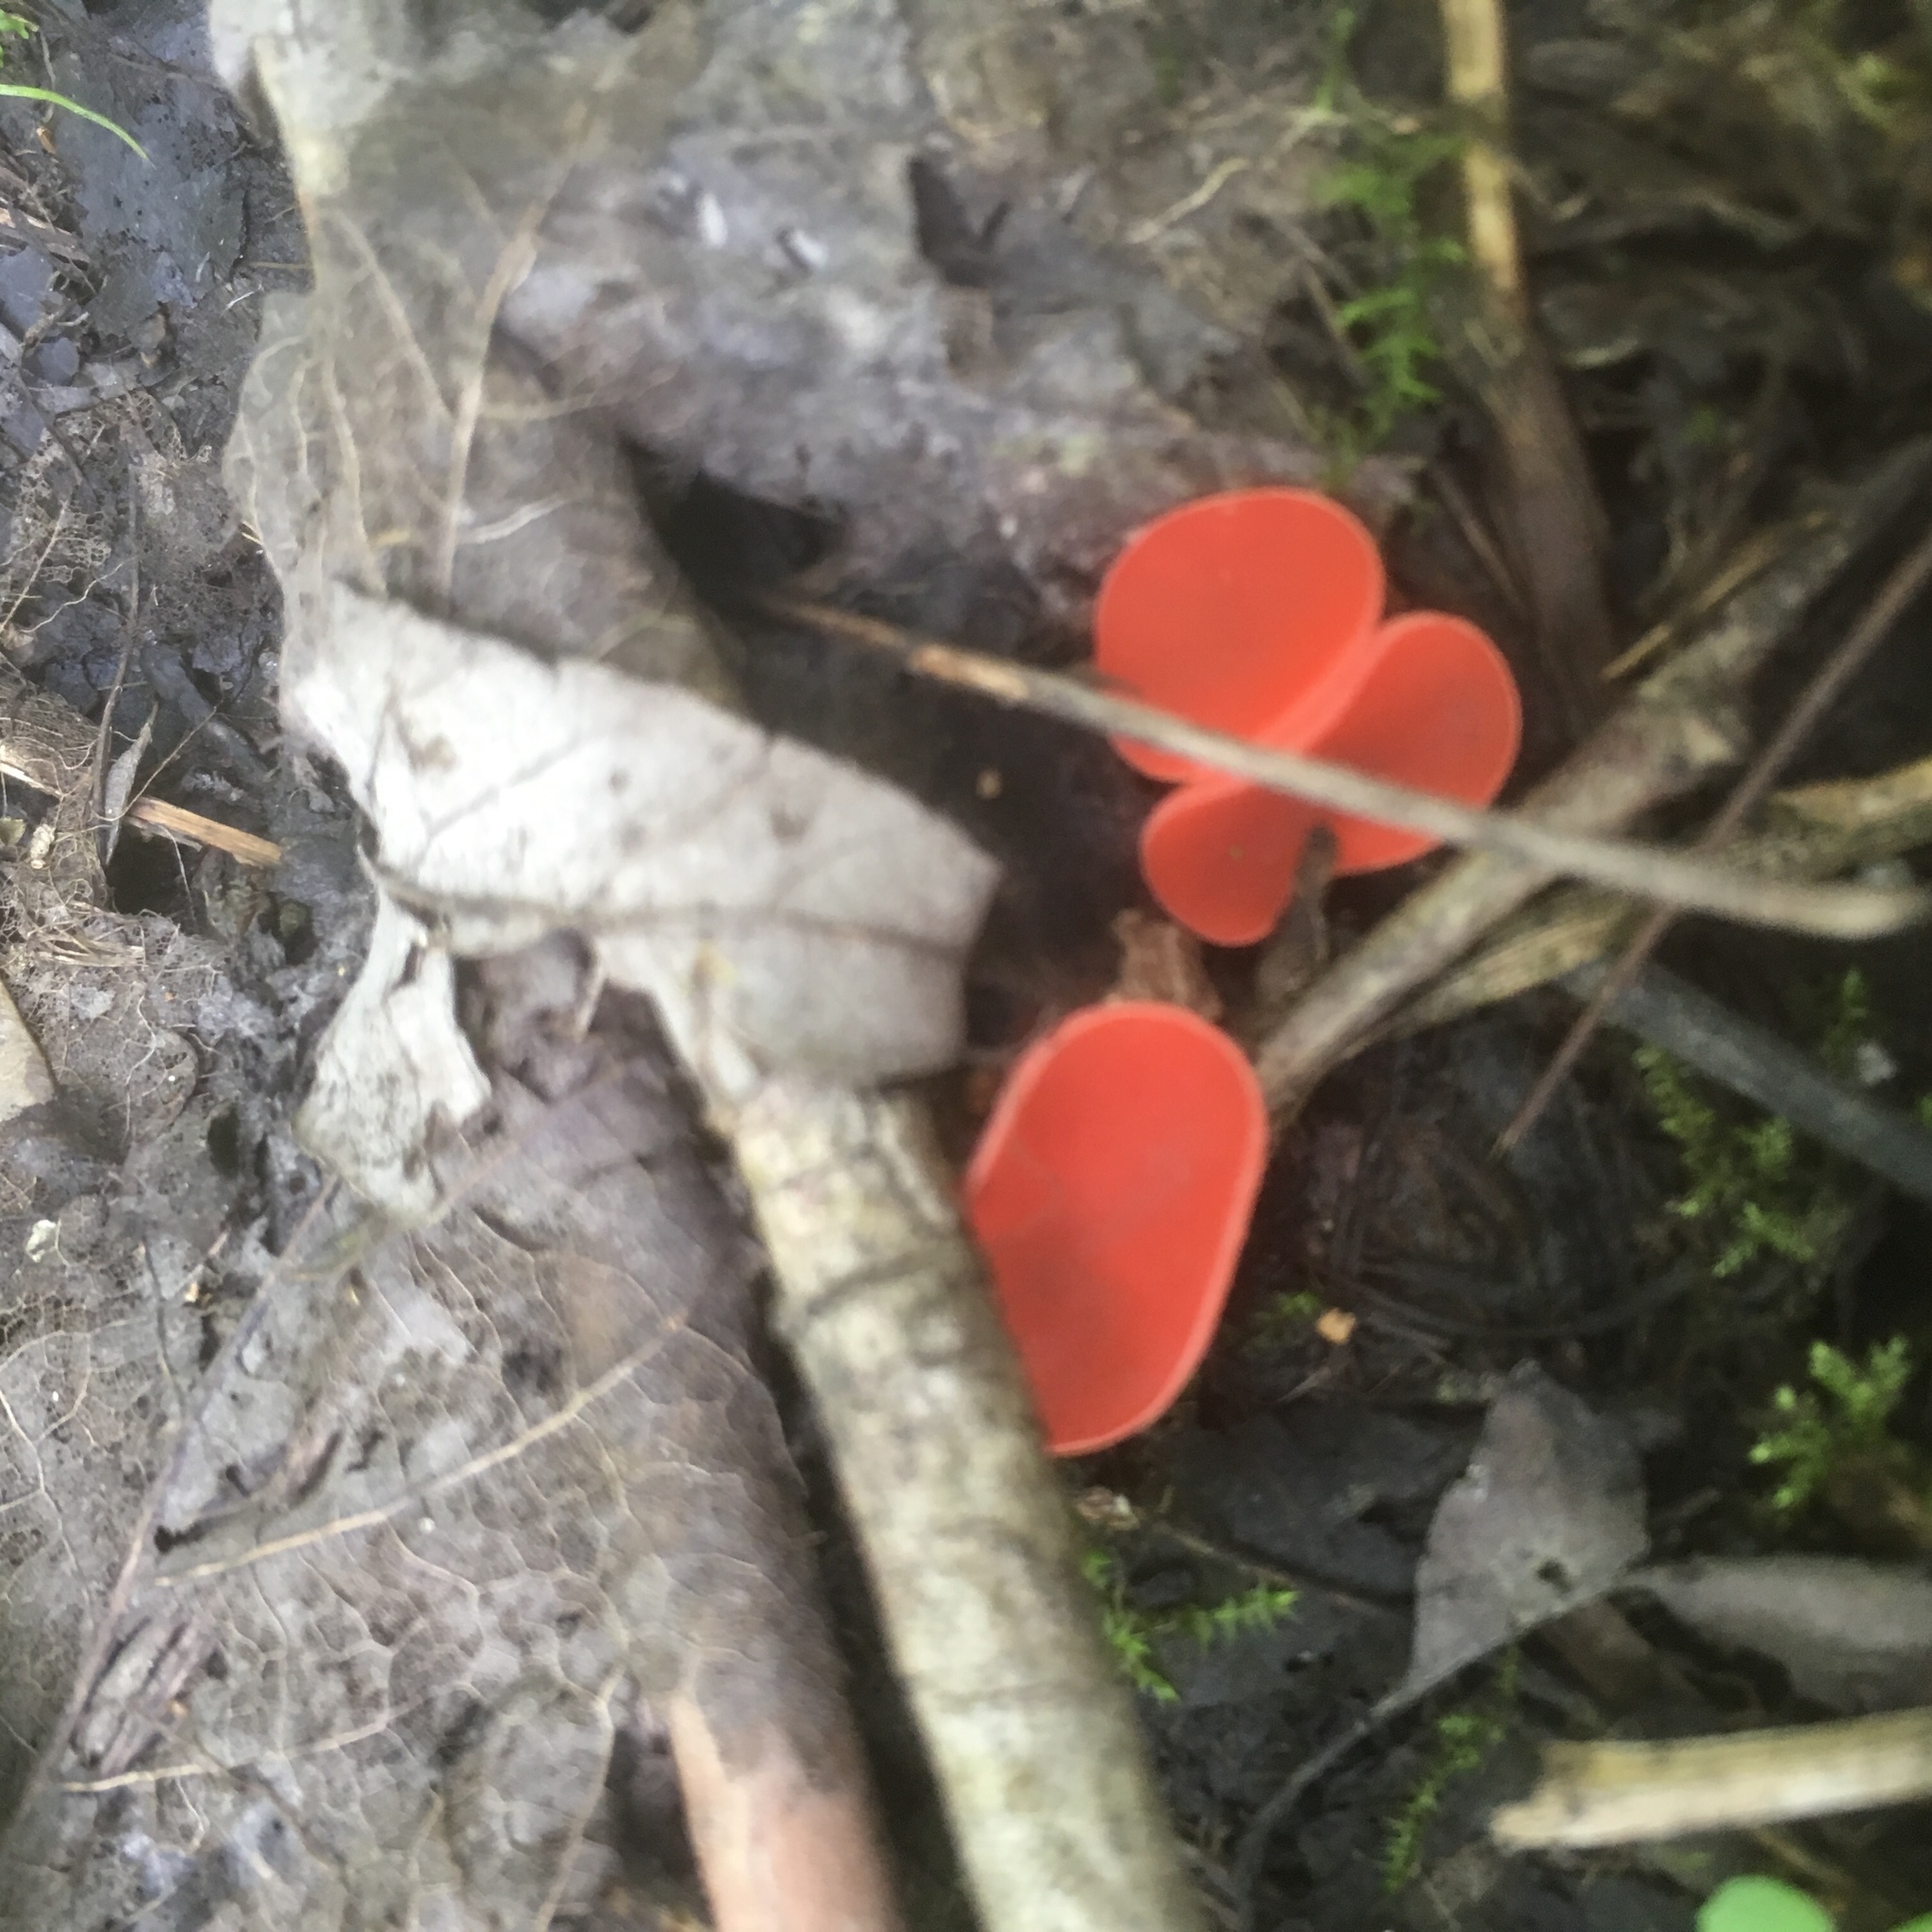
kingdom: Fungi
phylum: Ascomycota
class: Pezizomycetes
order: Pezizales
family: Sarcoscyphaceae
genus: Sarcoscypha
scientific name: Sarcoscypha occidentalis
